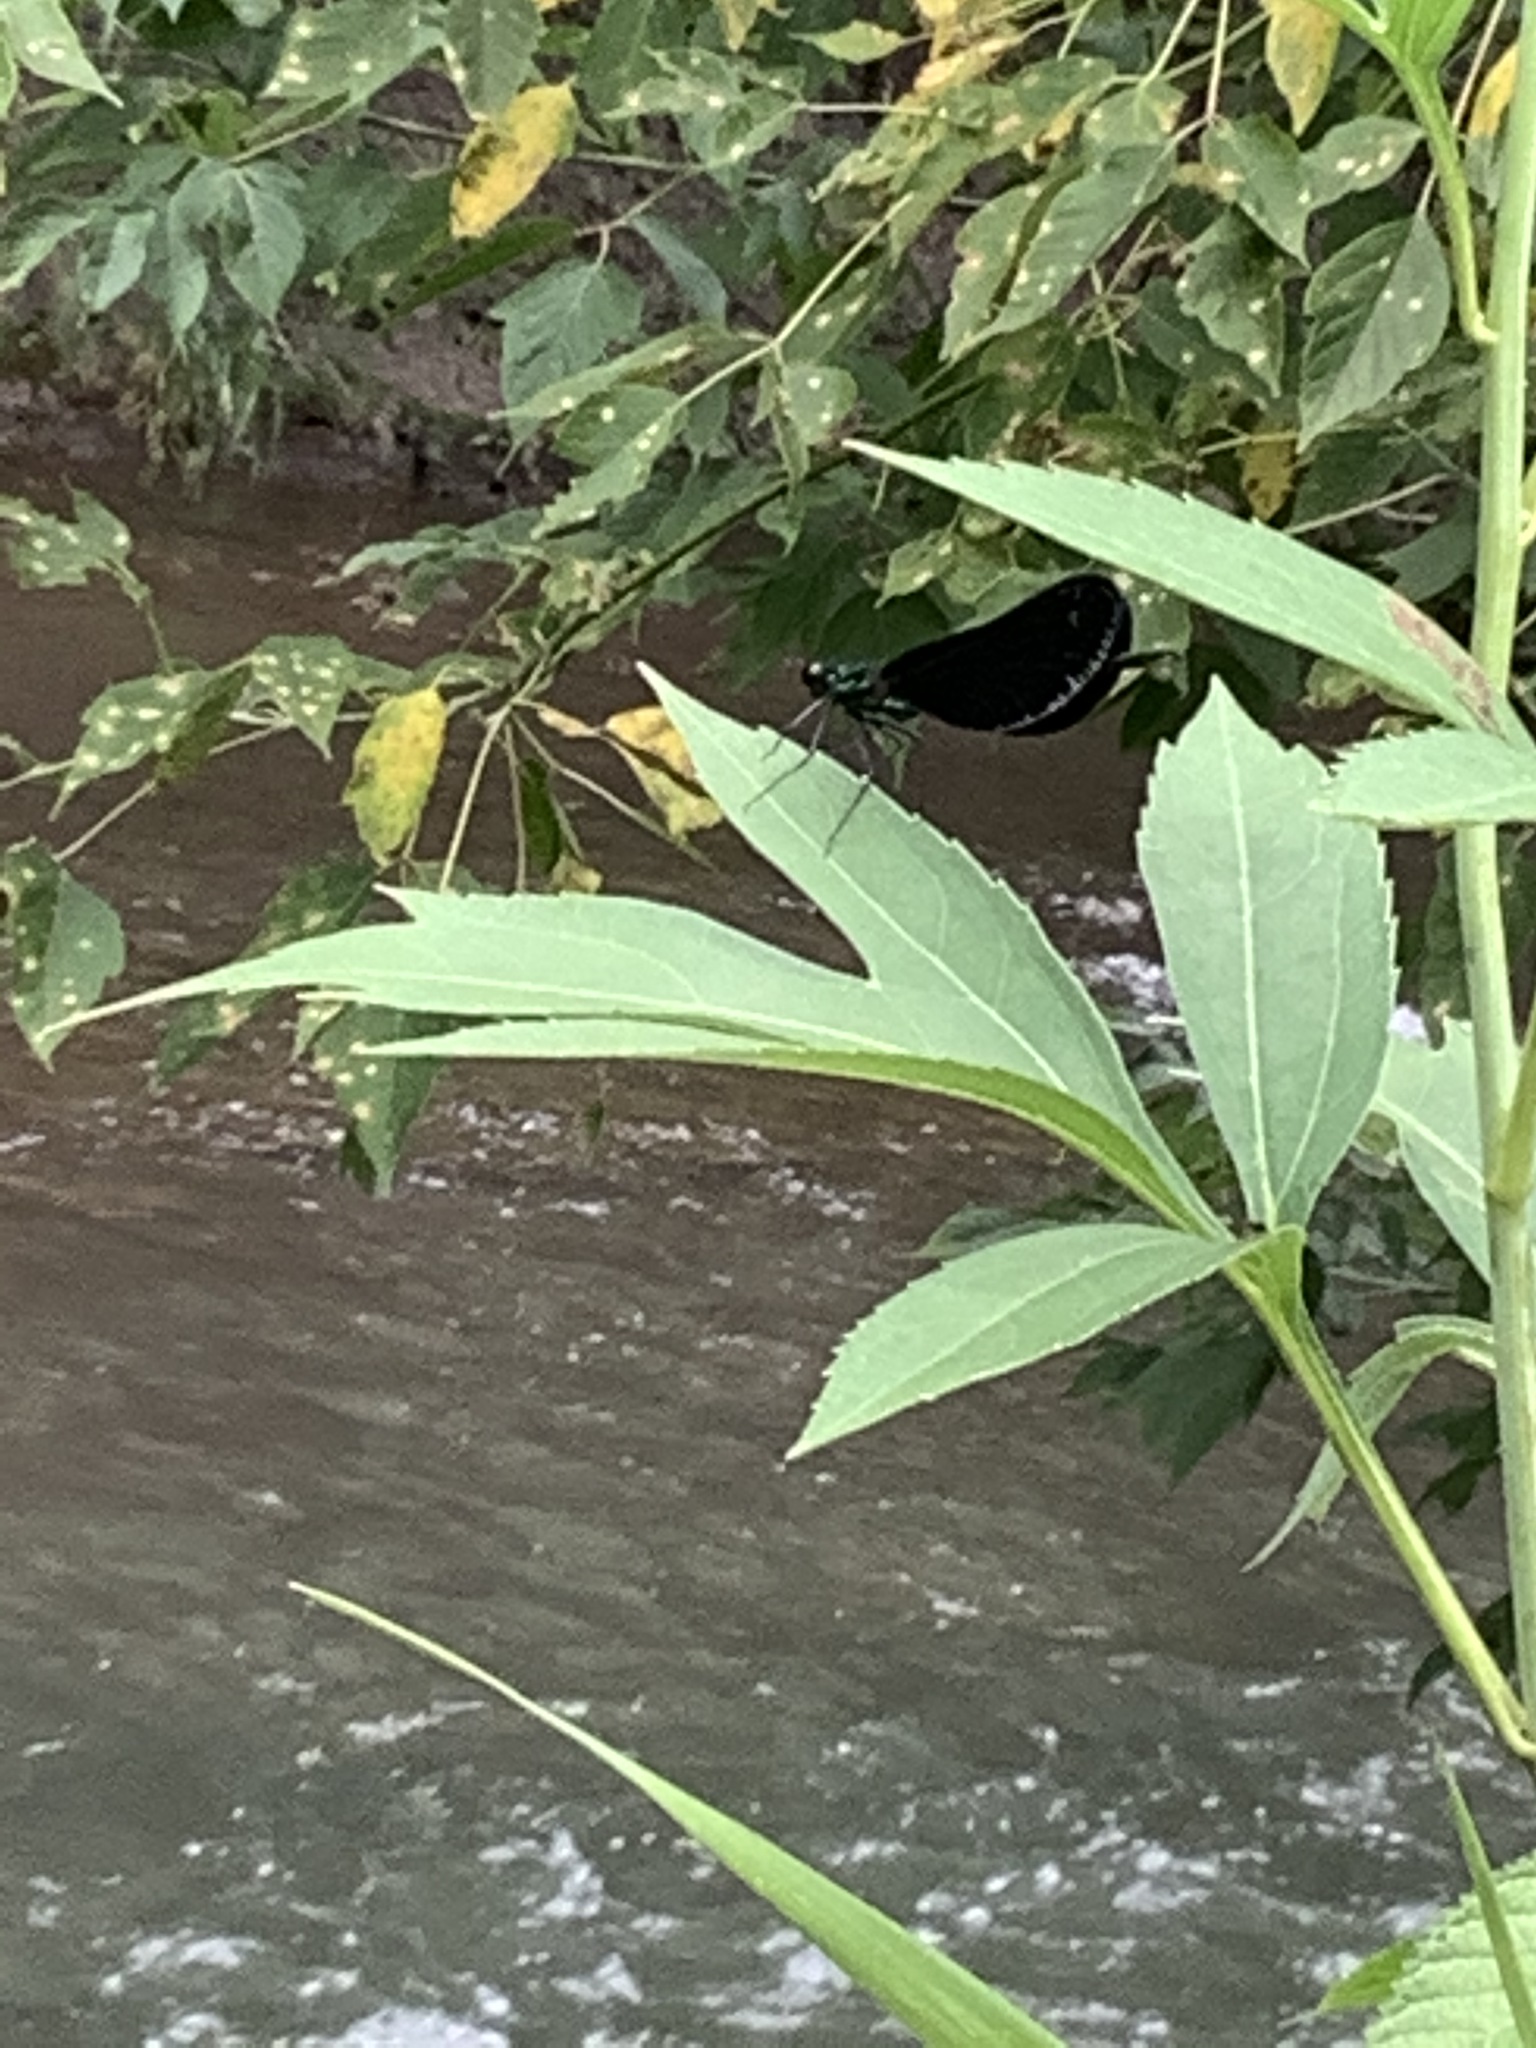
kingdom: Animalia
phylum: Arthropoda
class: Insecta
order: Odonata
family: Calopterygidae
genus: Calopteryx
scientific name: Calopteryx maculata
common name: Ebony jewelwing
